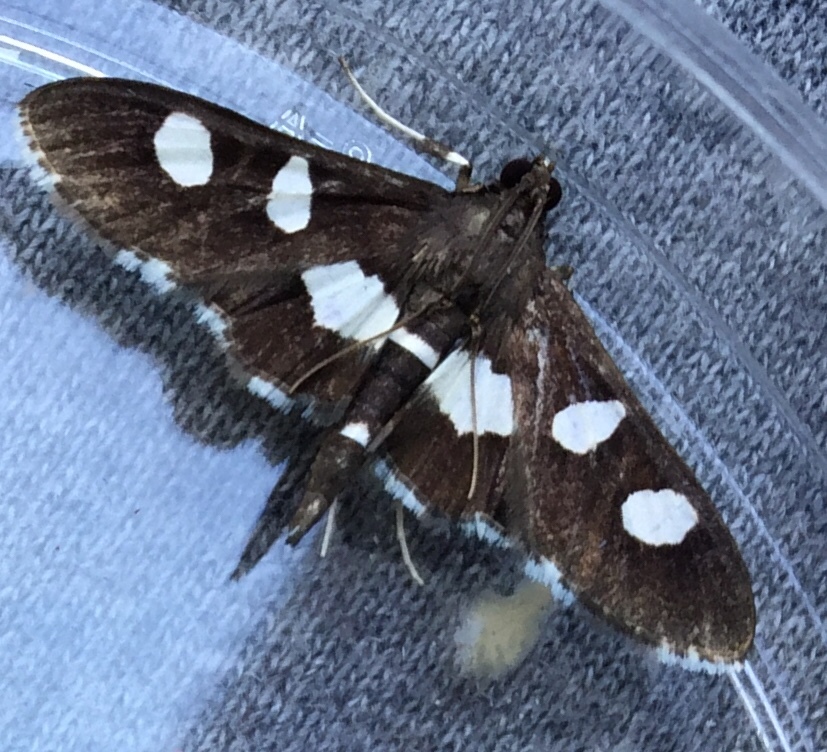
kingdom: Animalia
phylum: Arthropoda
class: Insecta
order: Lepidoptera
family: Crambidae
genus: Desmia
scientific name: Desmia funeralis
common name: Grape leaf folder moth
